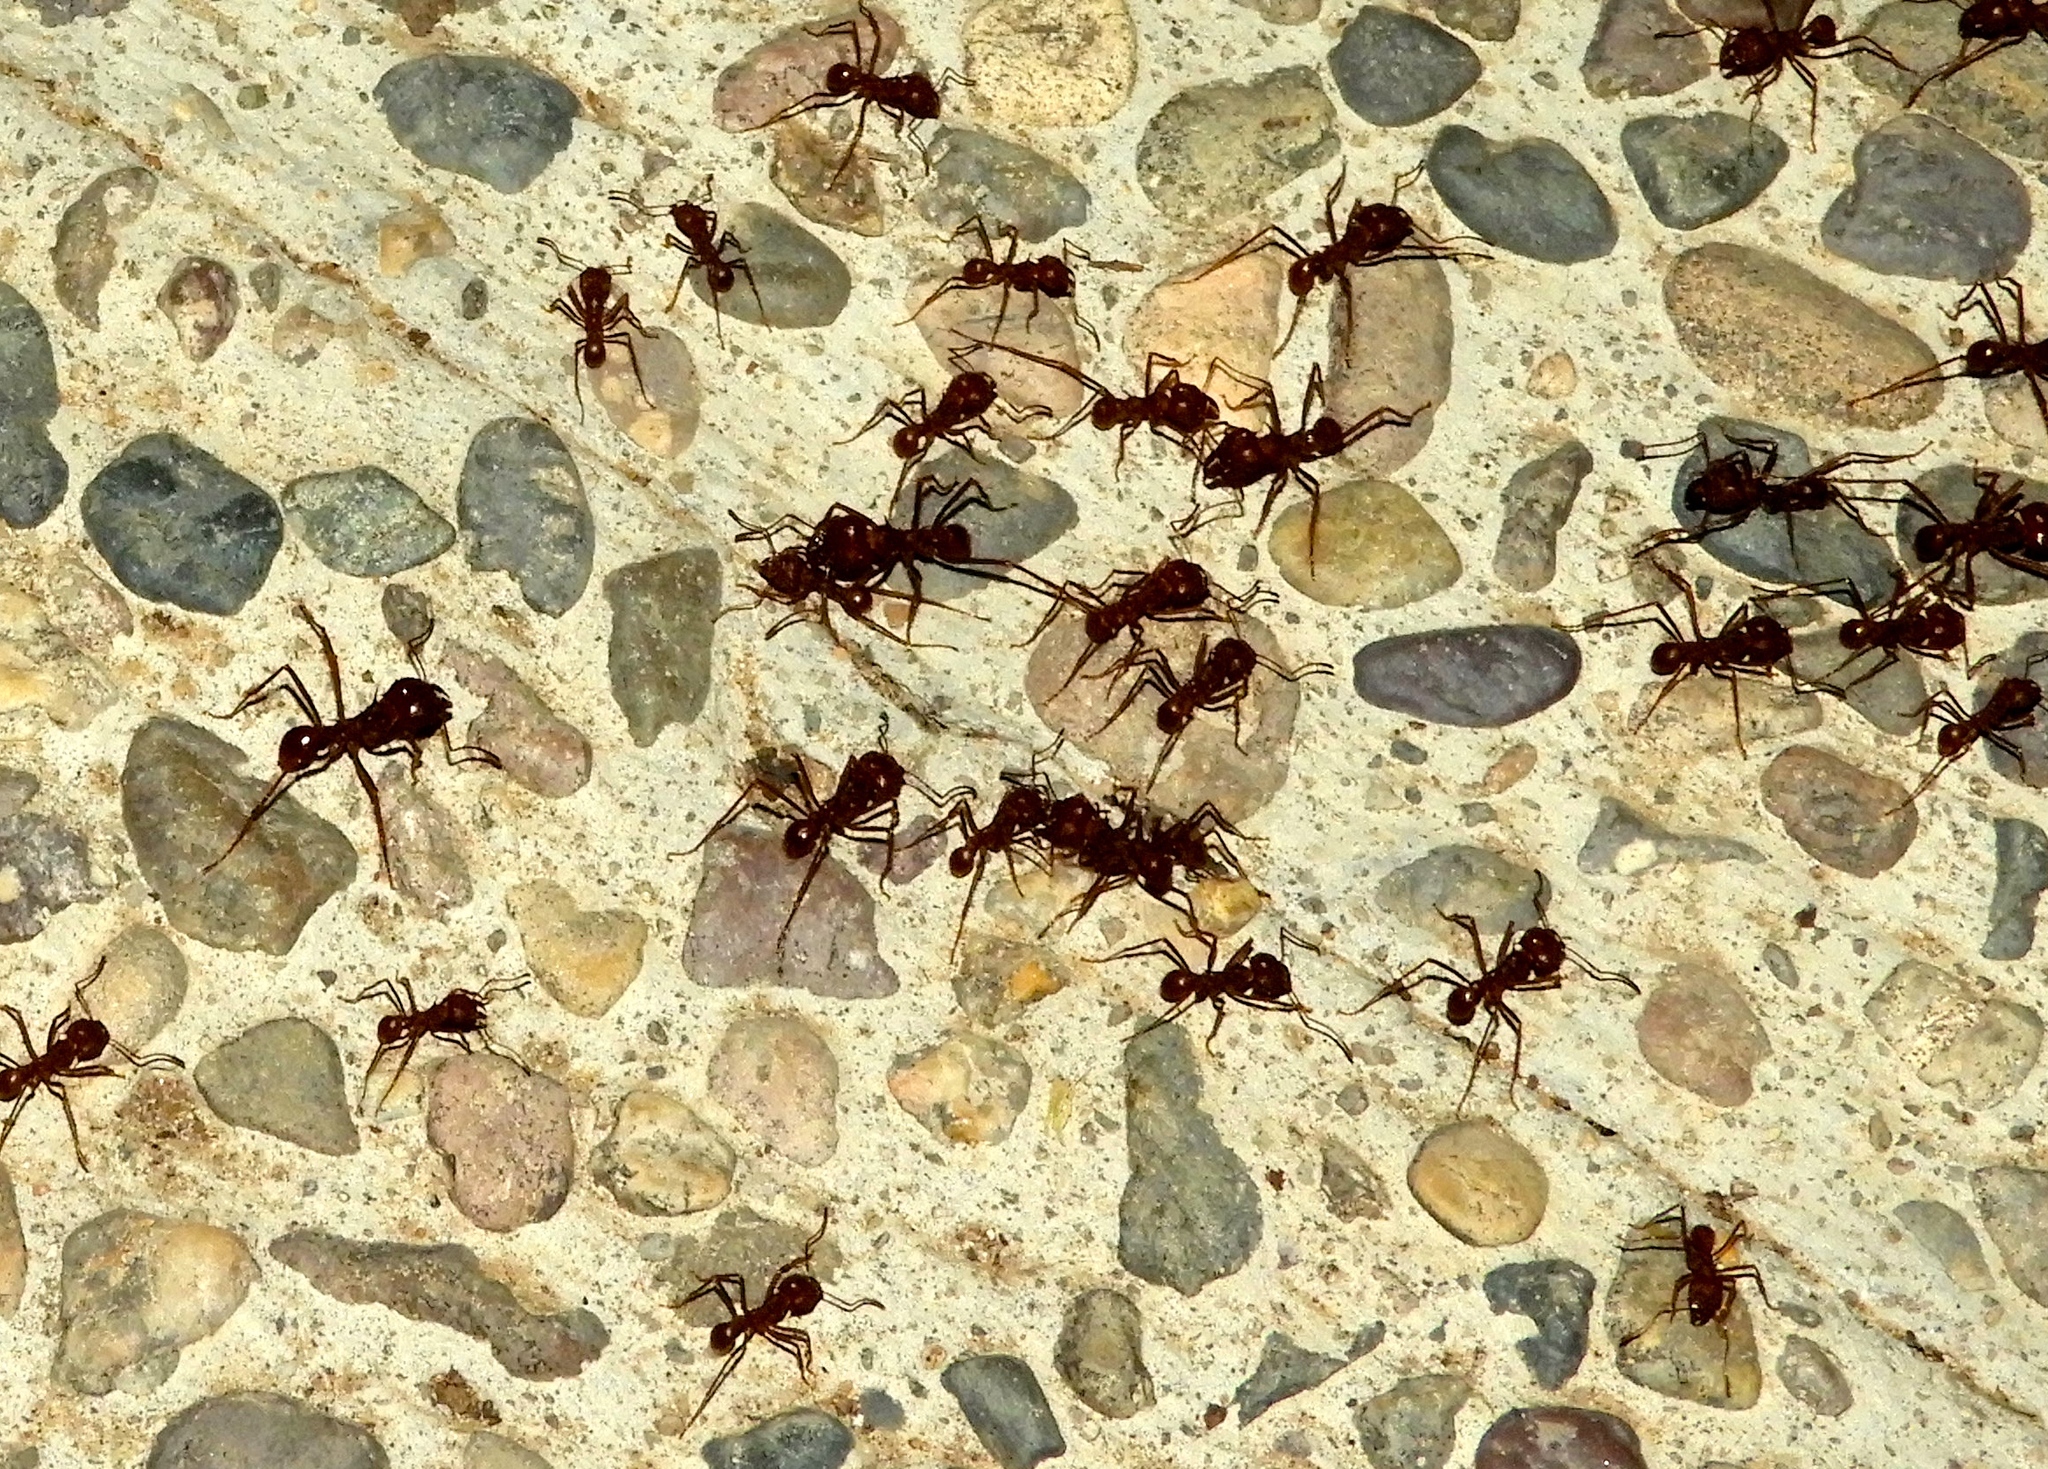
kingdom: Animalia
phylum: Arthropoda
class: Insecta
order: Hymenoptera
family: Formicidae
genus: Atta
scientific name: Atta mexicana
